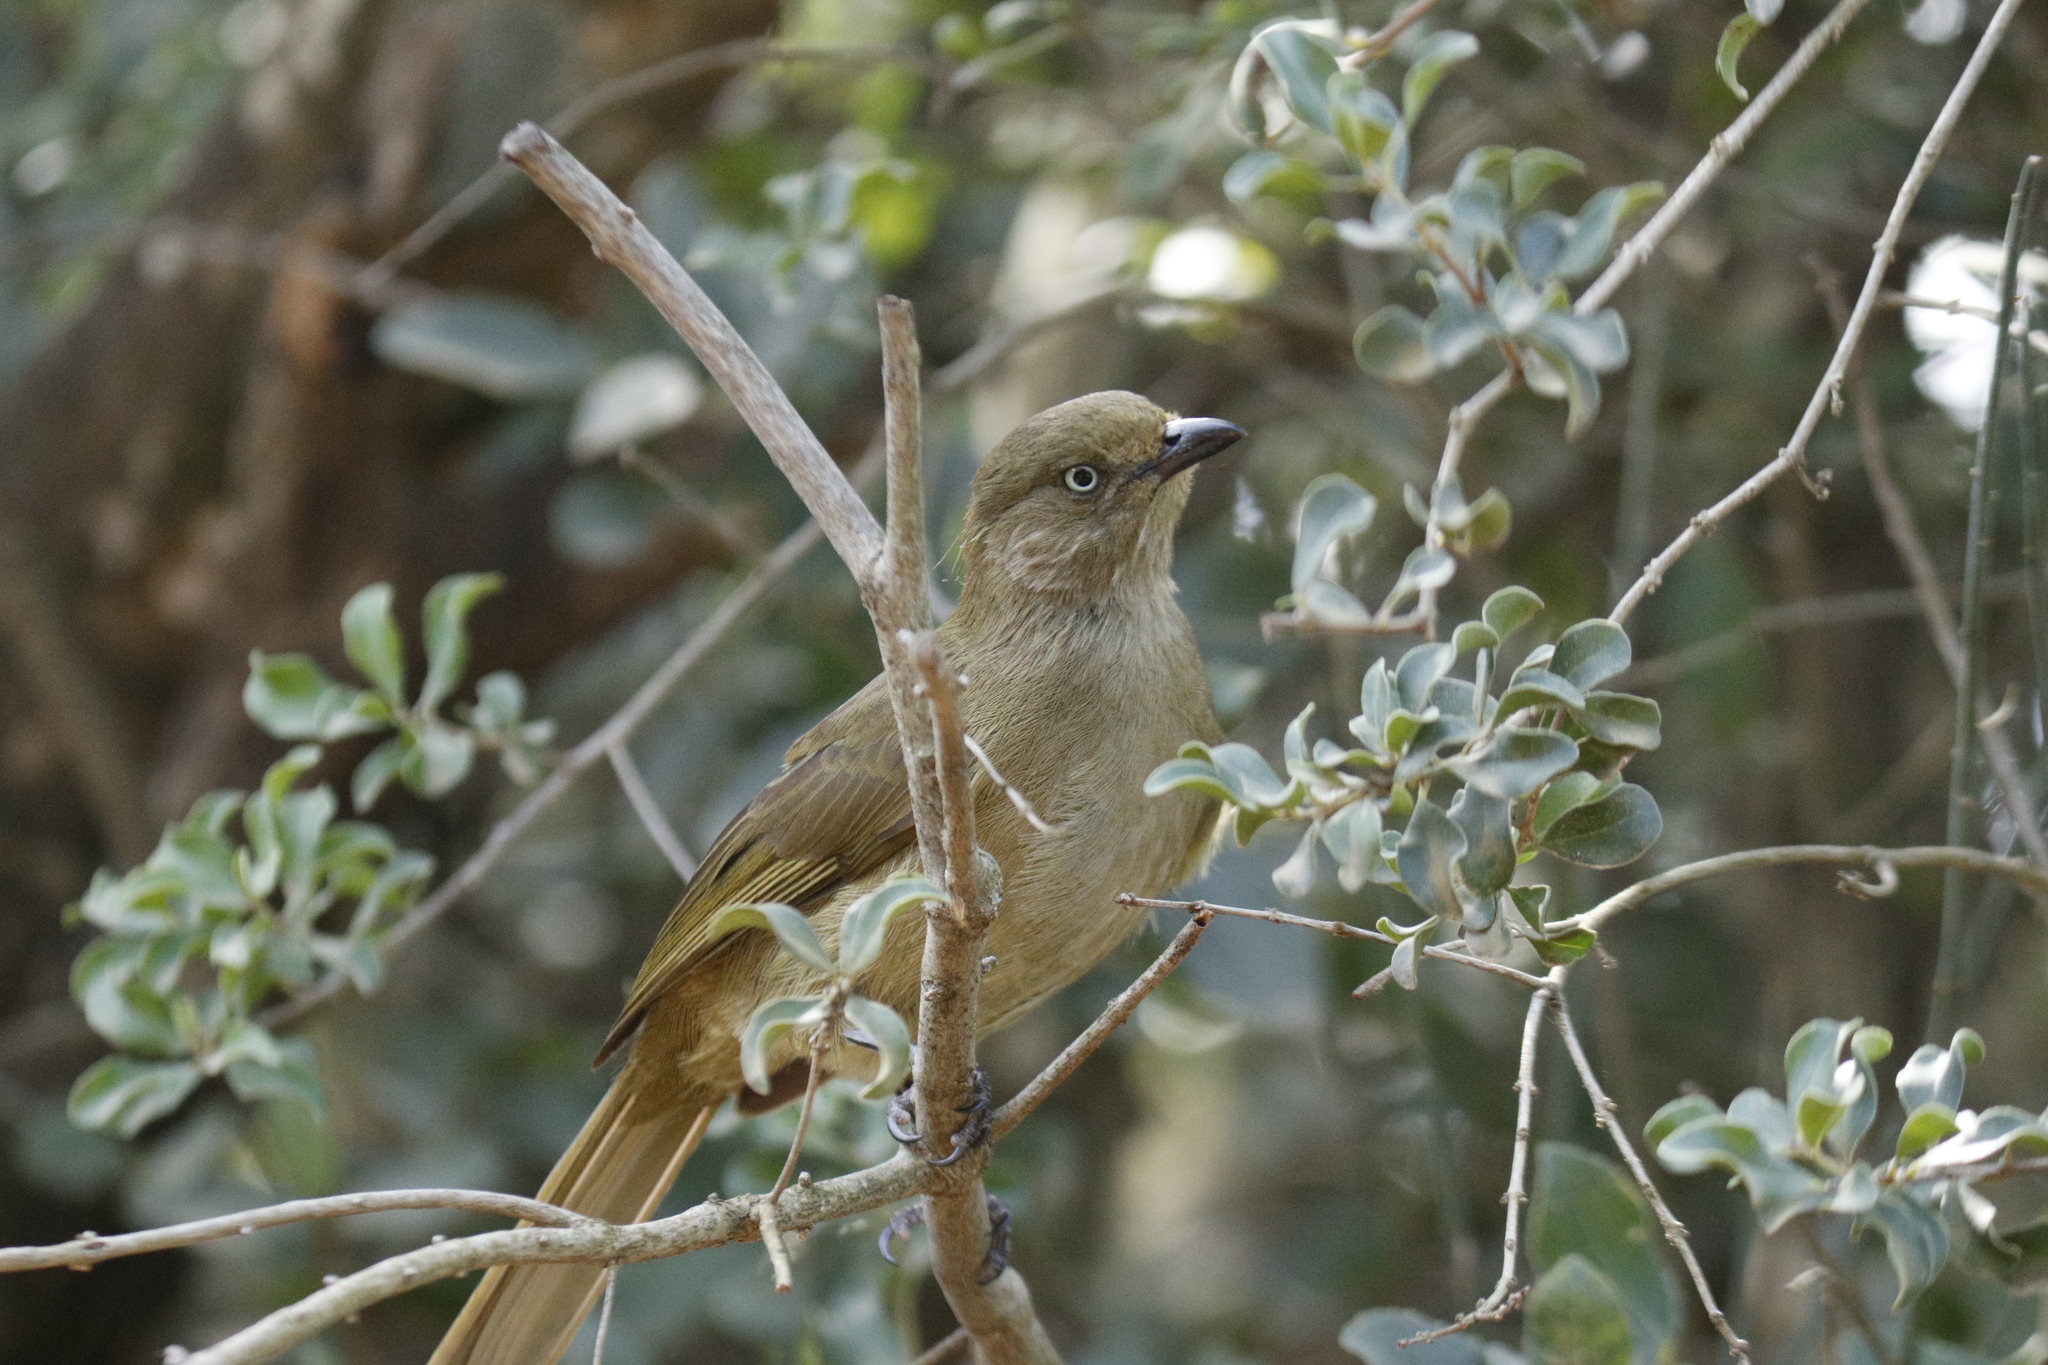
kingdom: Animalia
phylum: Chordata
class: Aves
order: Passeriformes
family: Pycnonotidae
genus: Andropadus
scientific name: Andropadus importunus
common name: Sombre greenbul
